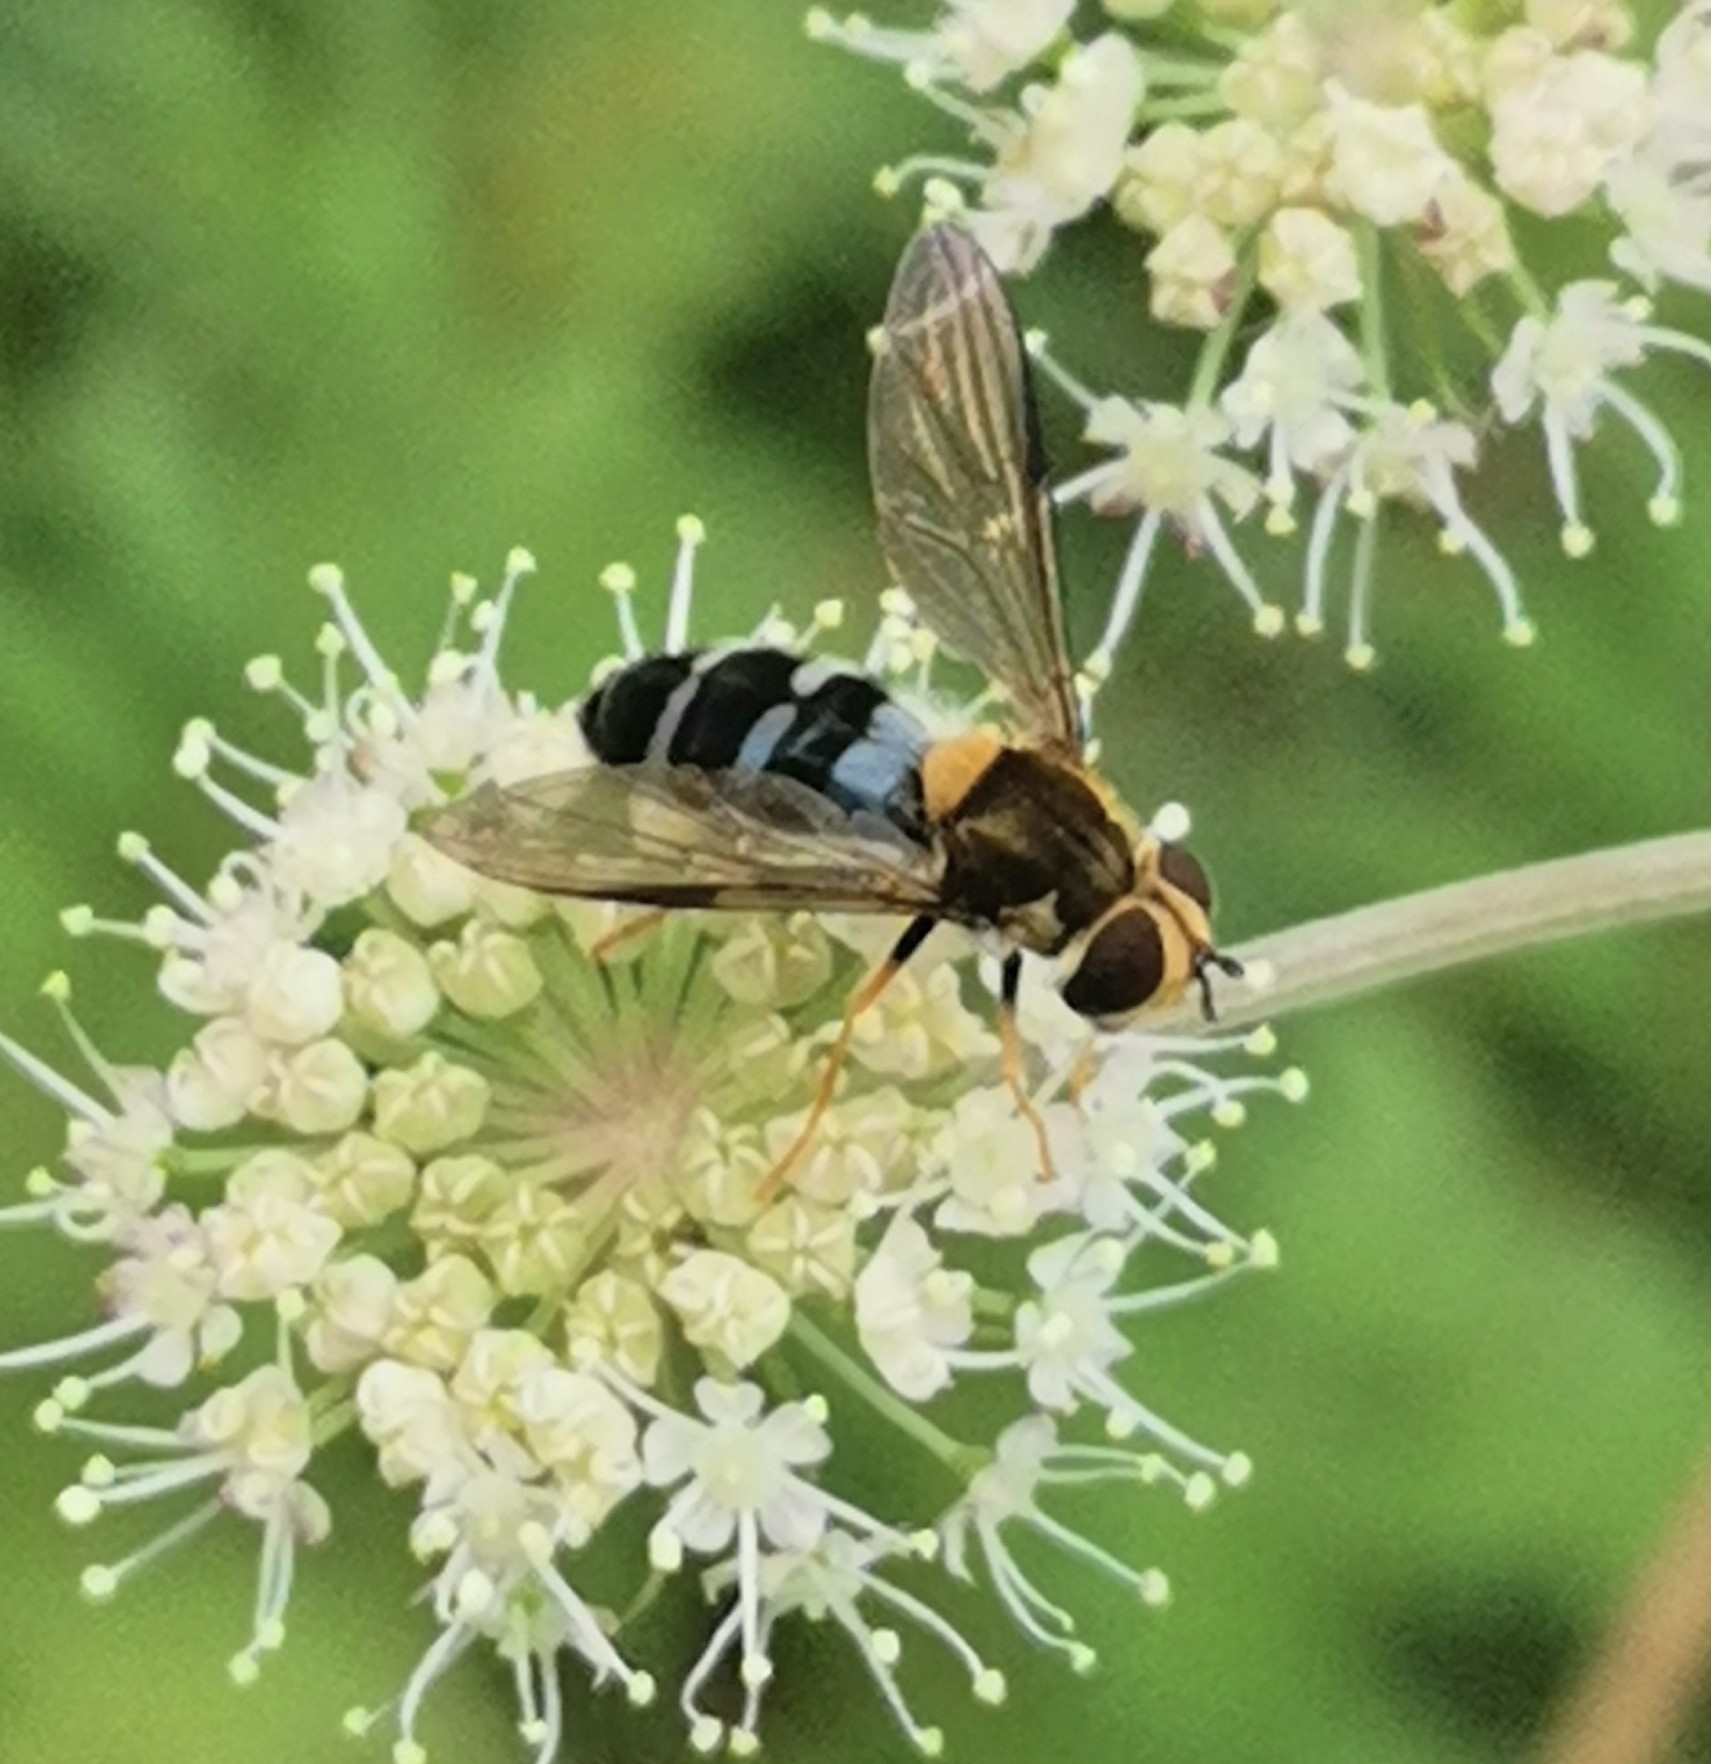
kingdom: Animalia
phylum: Arthropoda
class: Insecta
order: Diptera
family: Syrphidae
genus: Leucozona
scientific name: Leucozona glaucia
